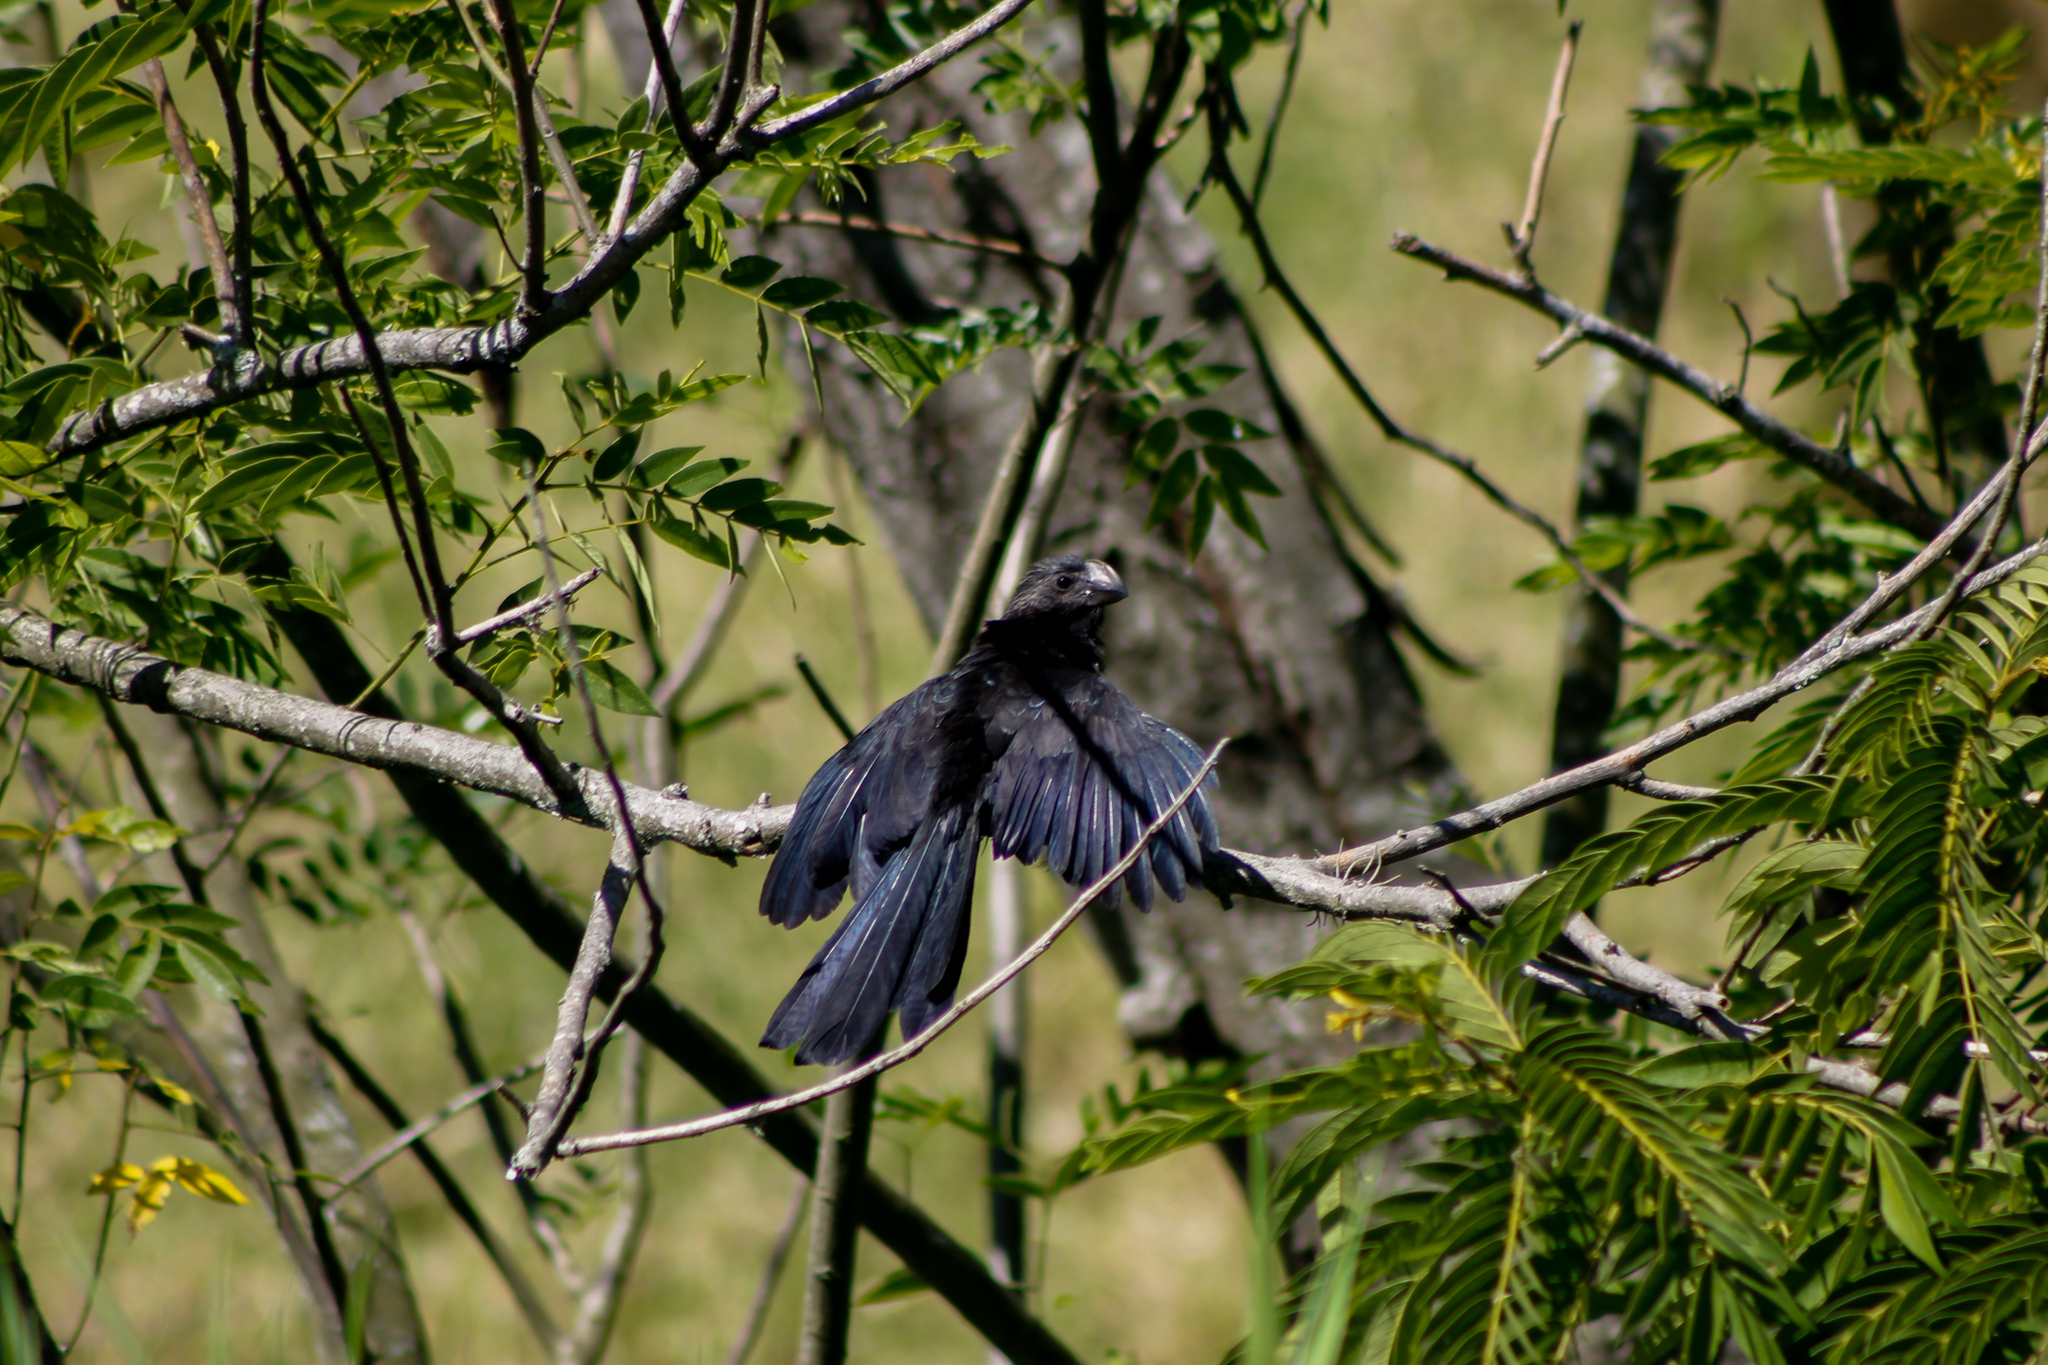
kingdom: Animalia
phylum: Chordata
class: Aves
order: Cuculiformes
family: Cuculidae
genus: Crotophaga
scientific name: Crotophaga ani
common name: Smooth-billed ani
